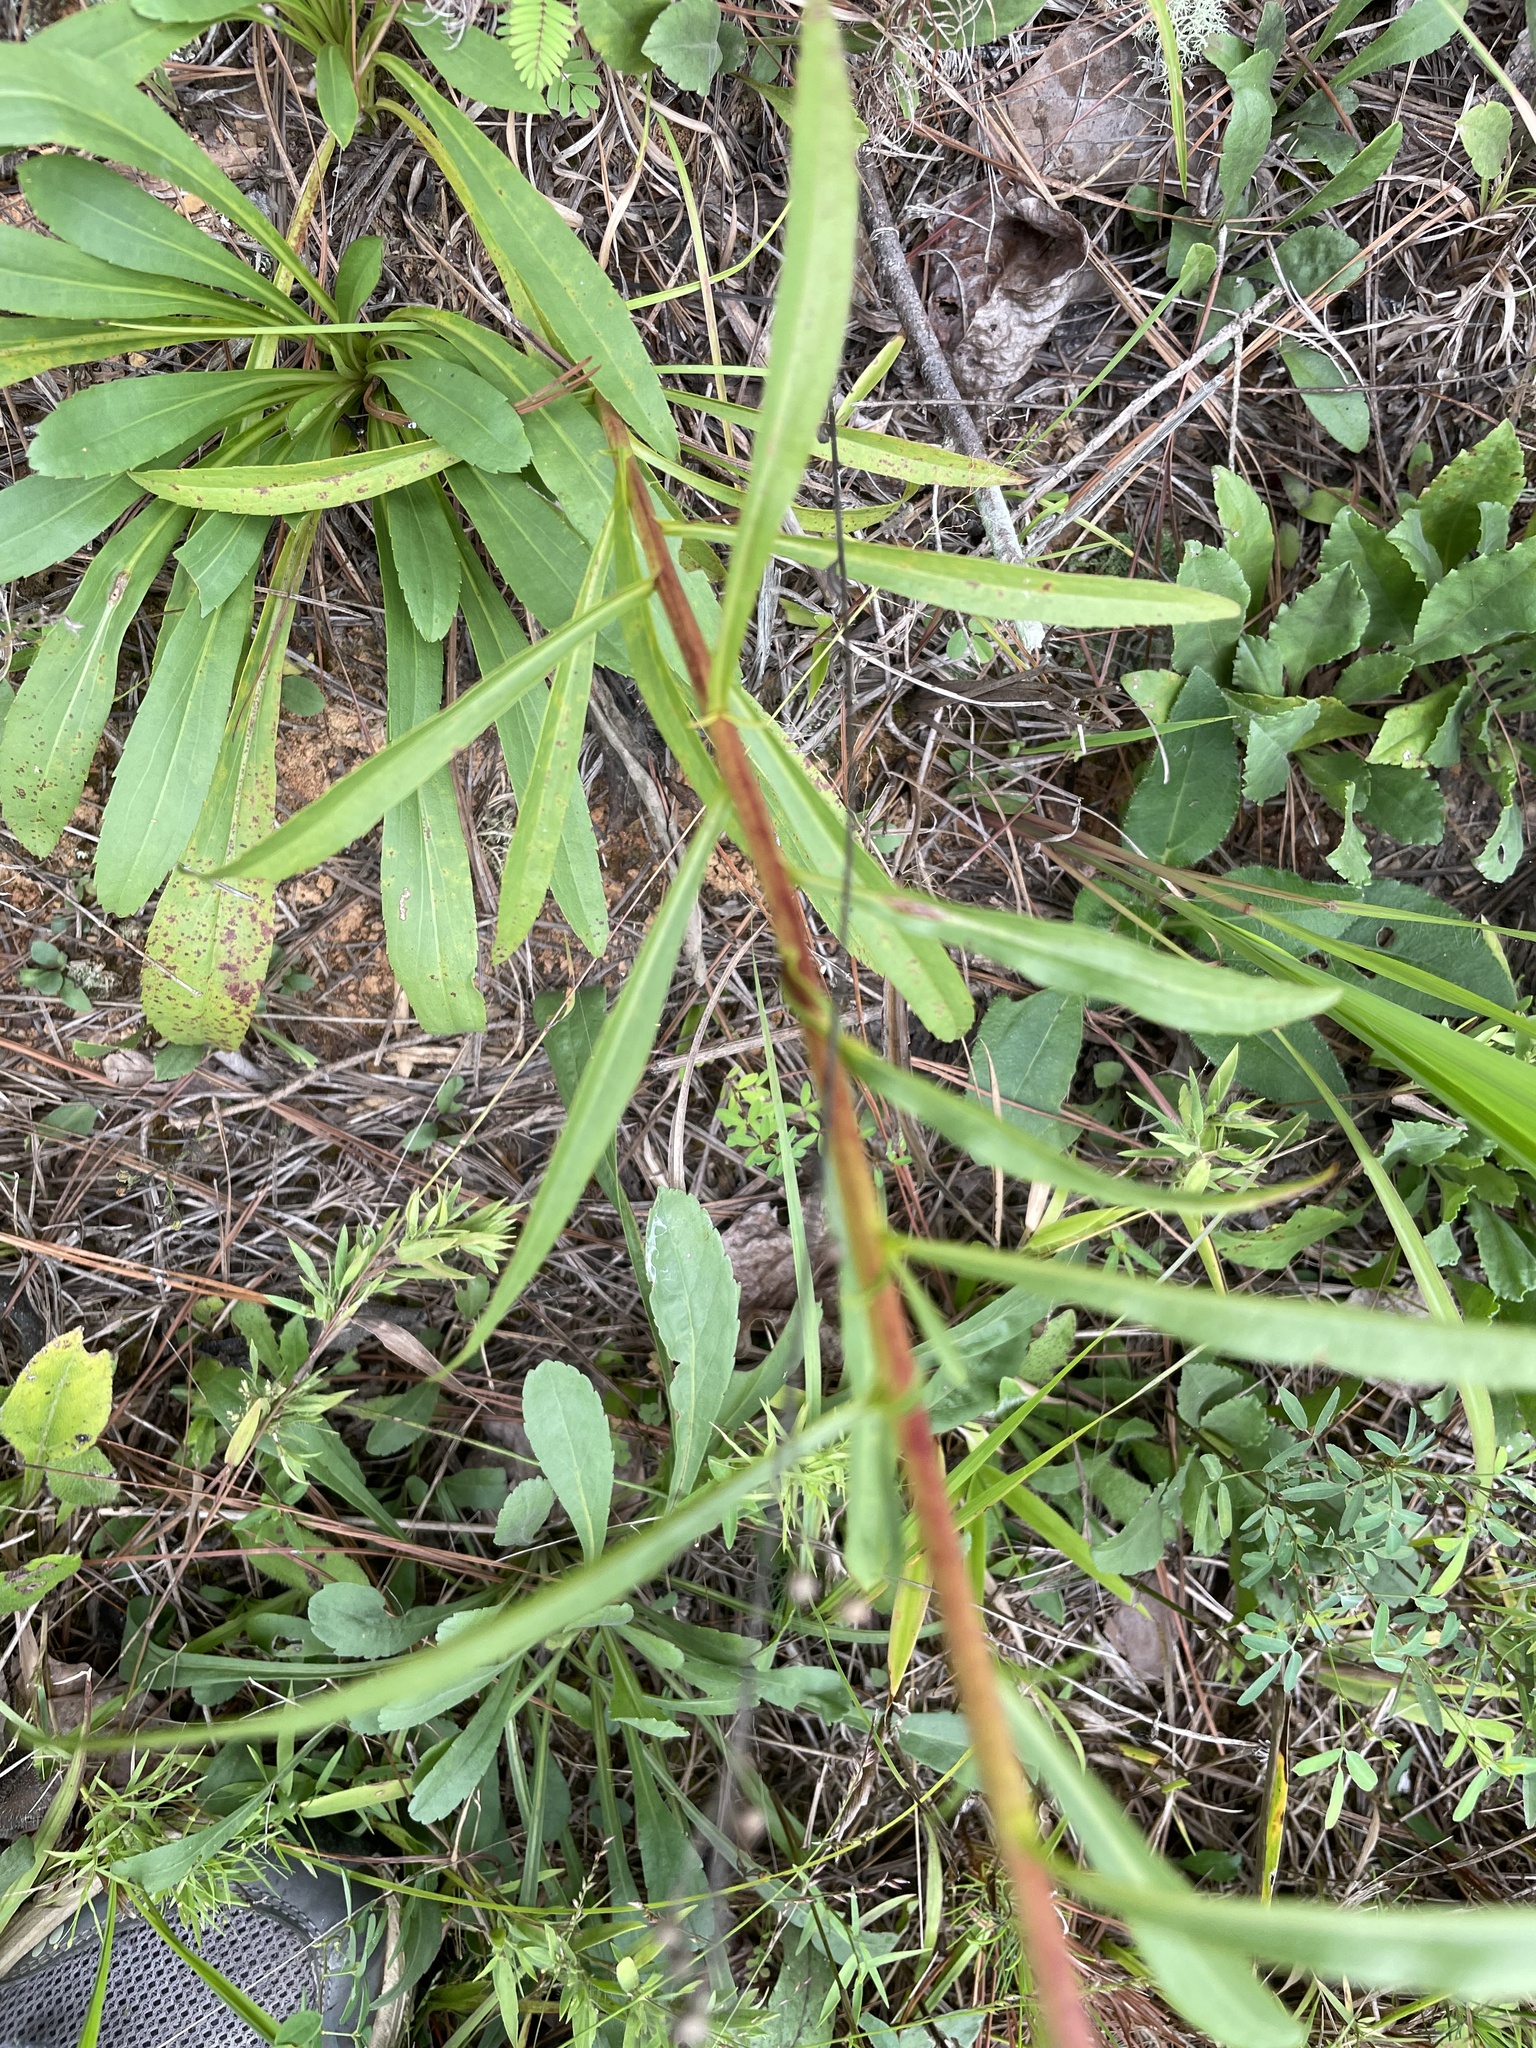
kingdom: Plantae
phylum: Tracheophyta
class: Magnoliopsida
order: Asterales
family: Asteraceae
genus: Solidago
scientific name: Solidago pinetorum
